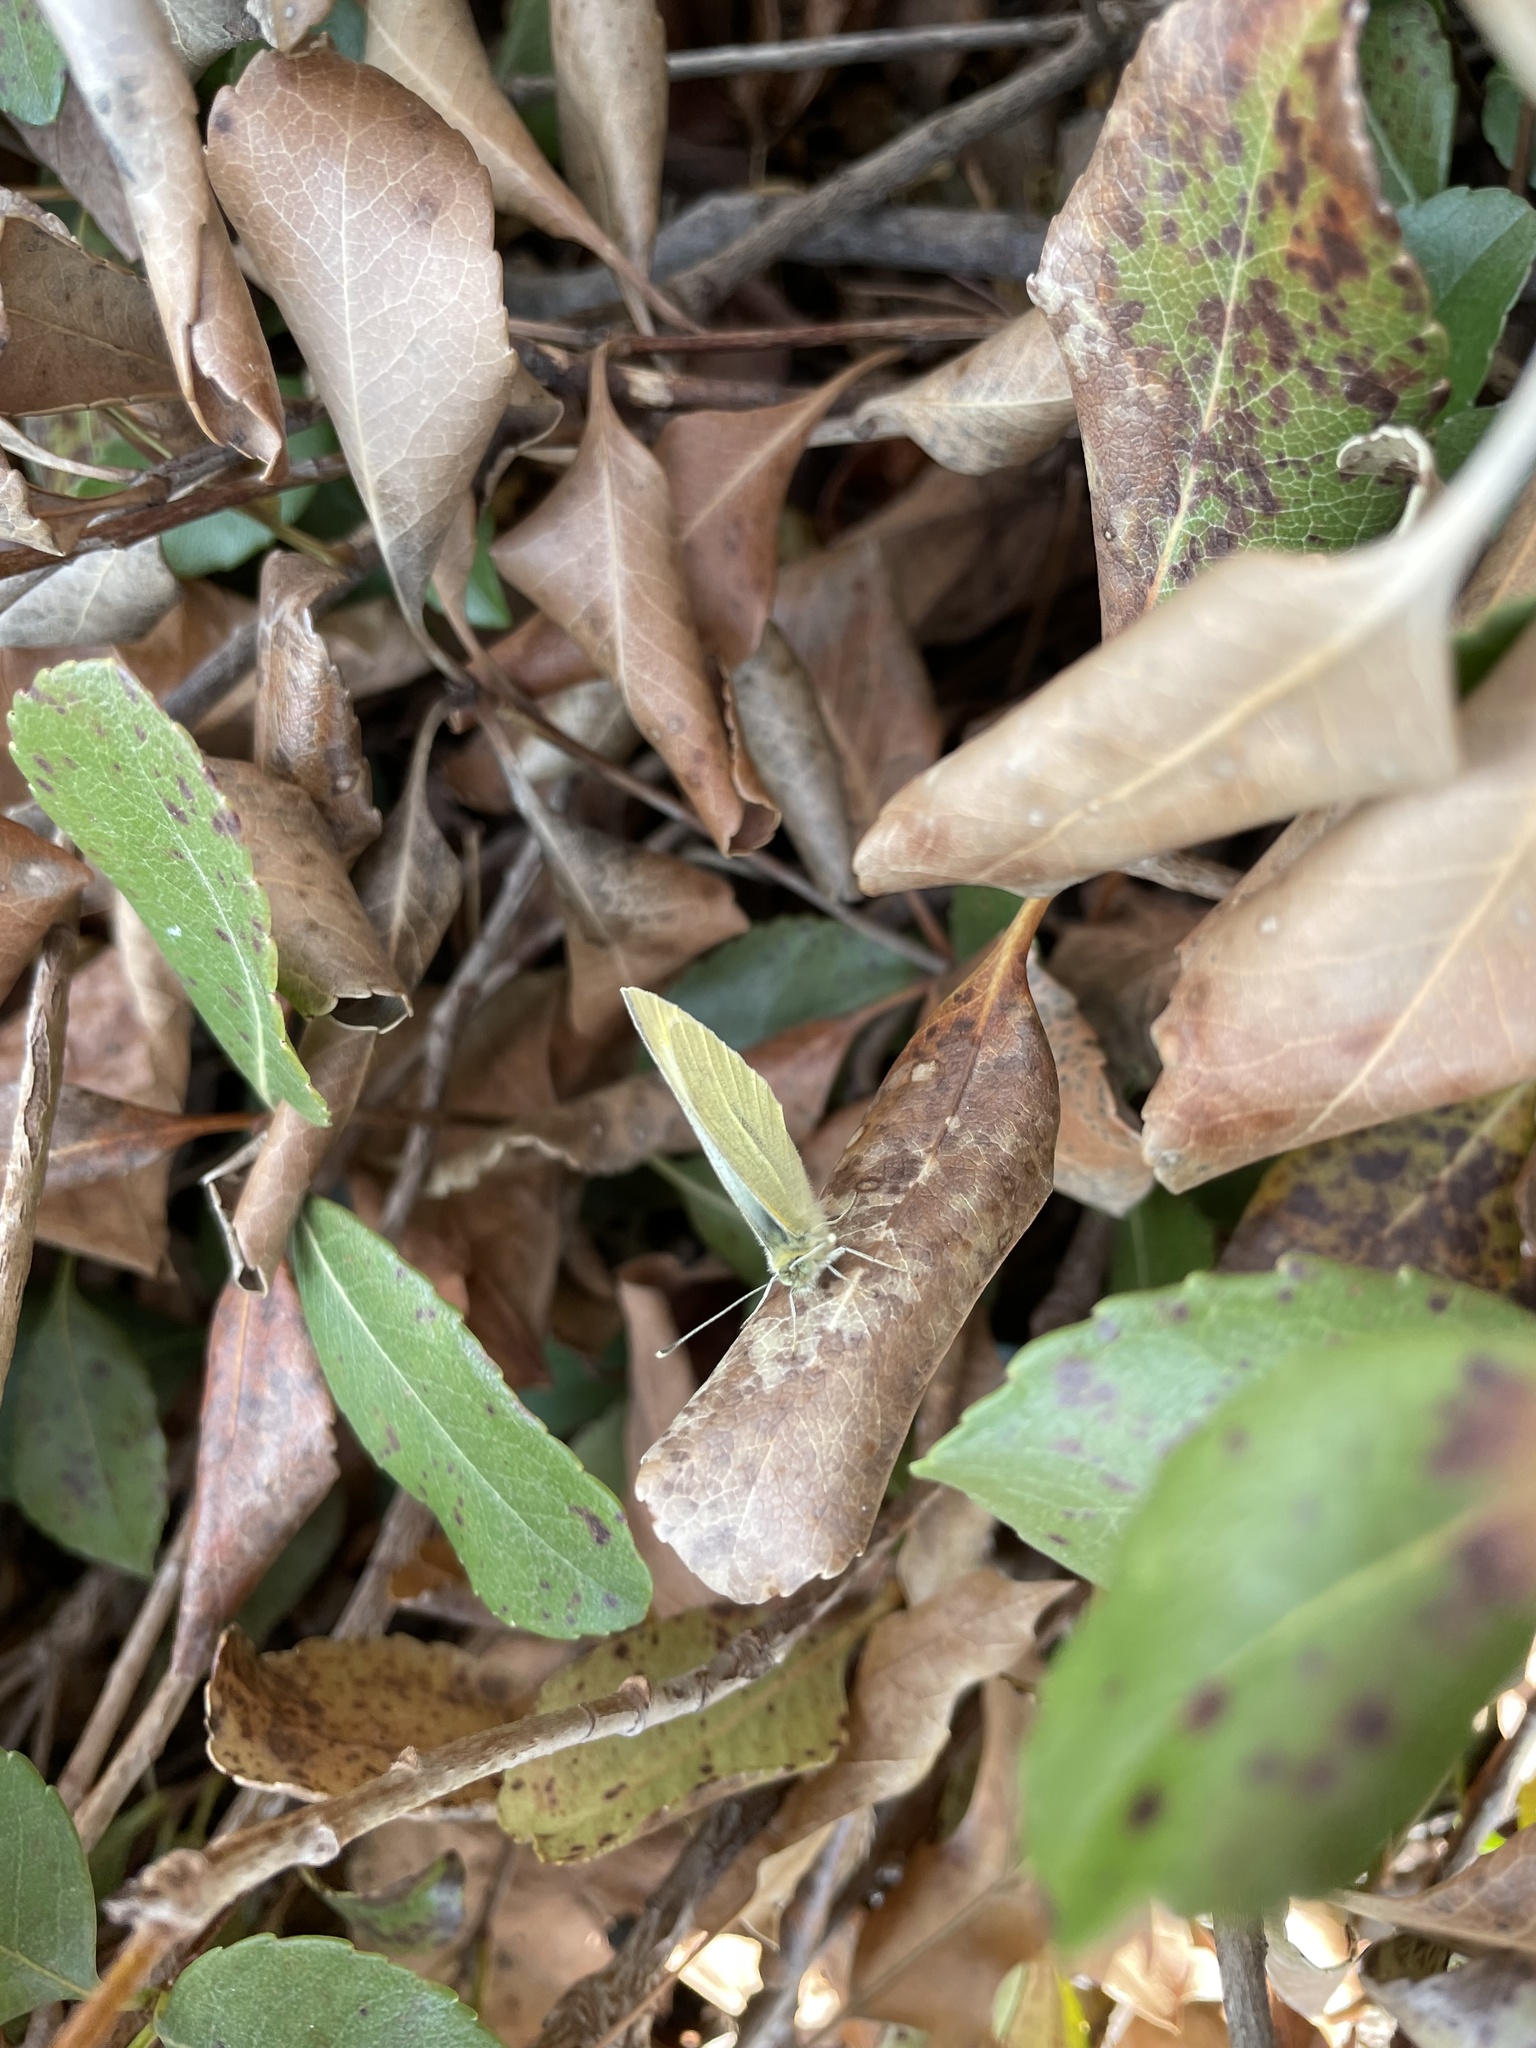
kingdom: Animalia
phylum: Arthropoda
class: Insecta
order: Lepidoptera
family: Pieridae
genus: Pieris
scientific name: Pieris rapae
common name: Small white
